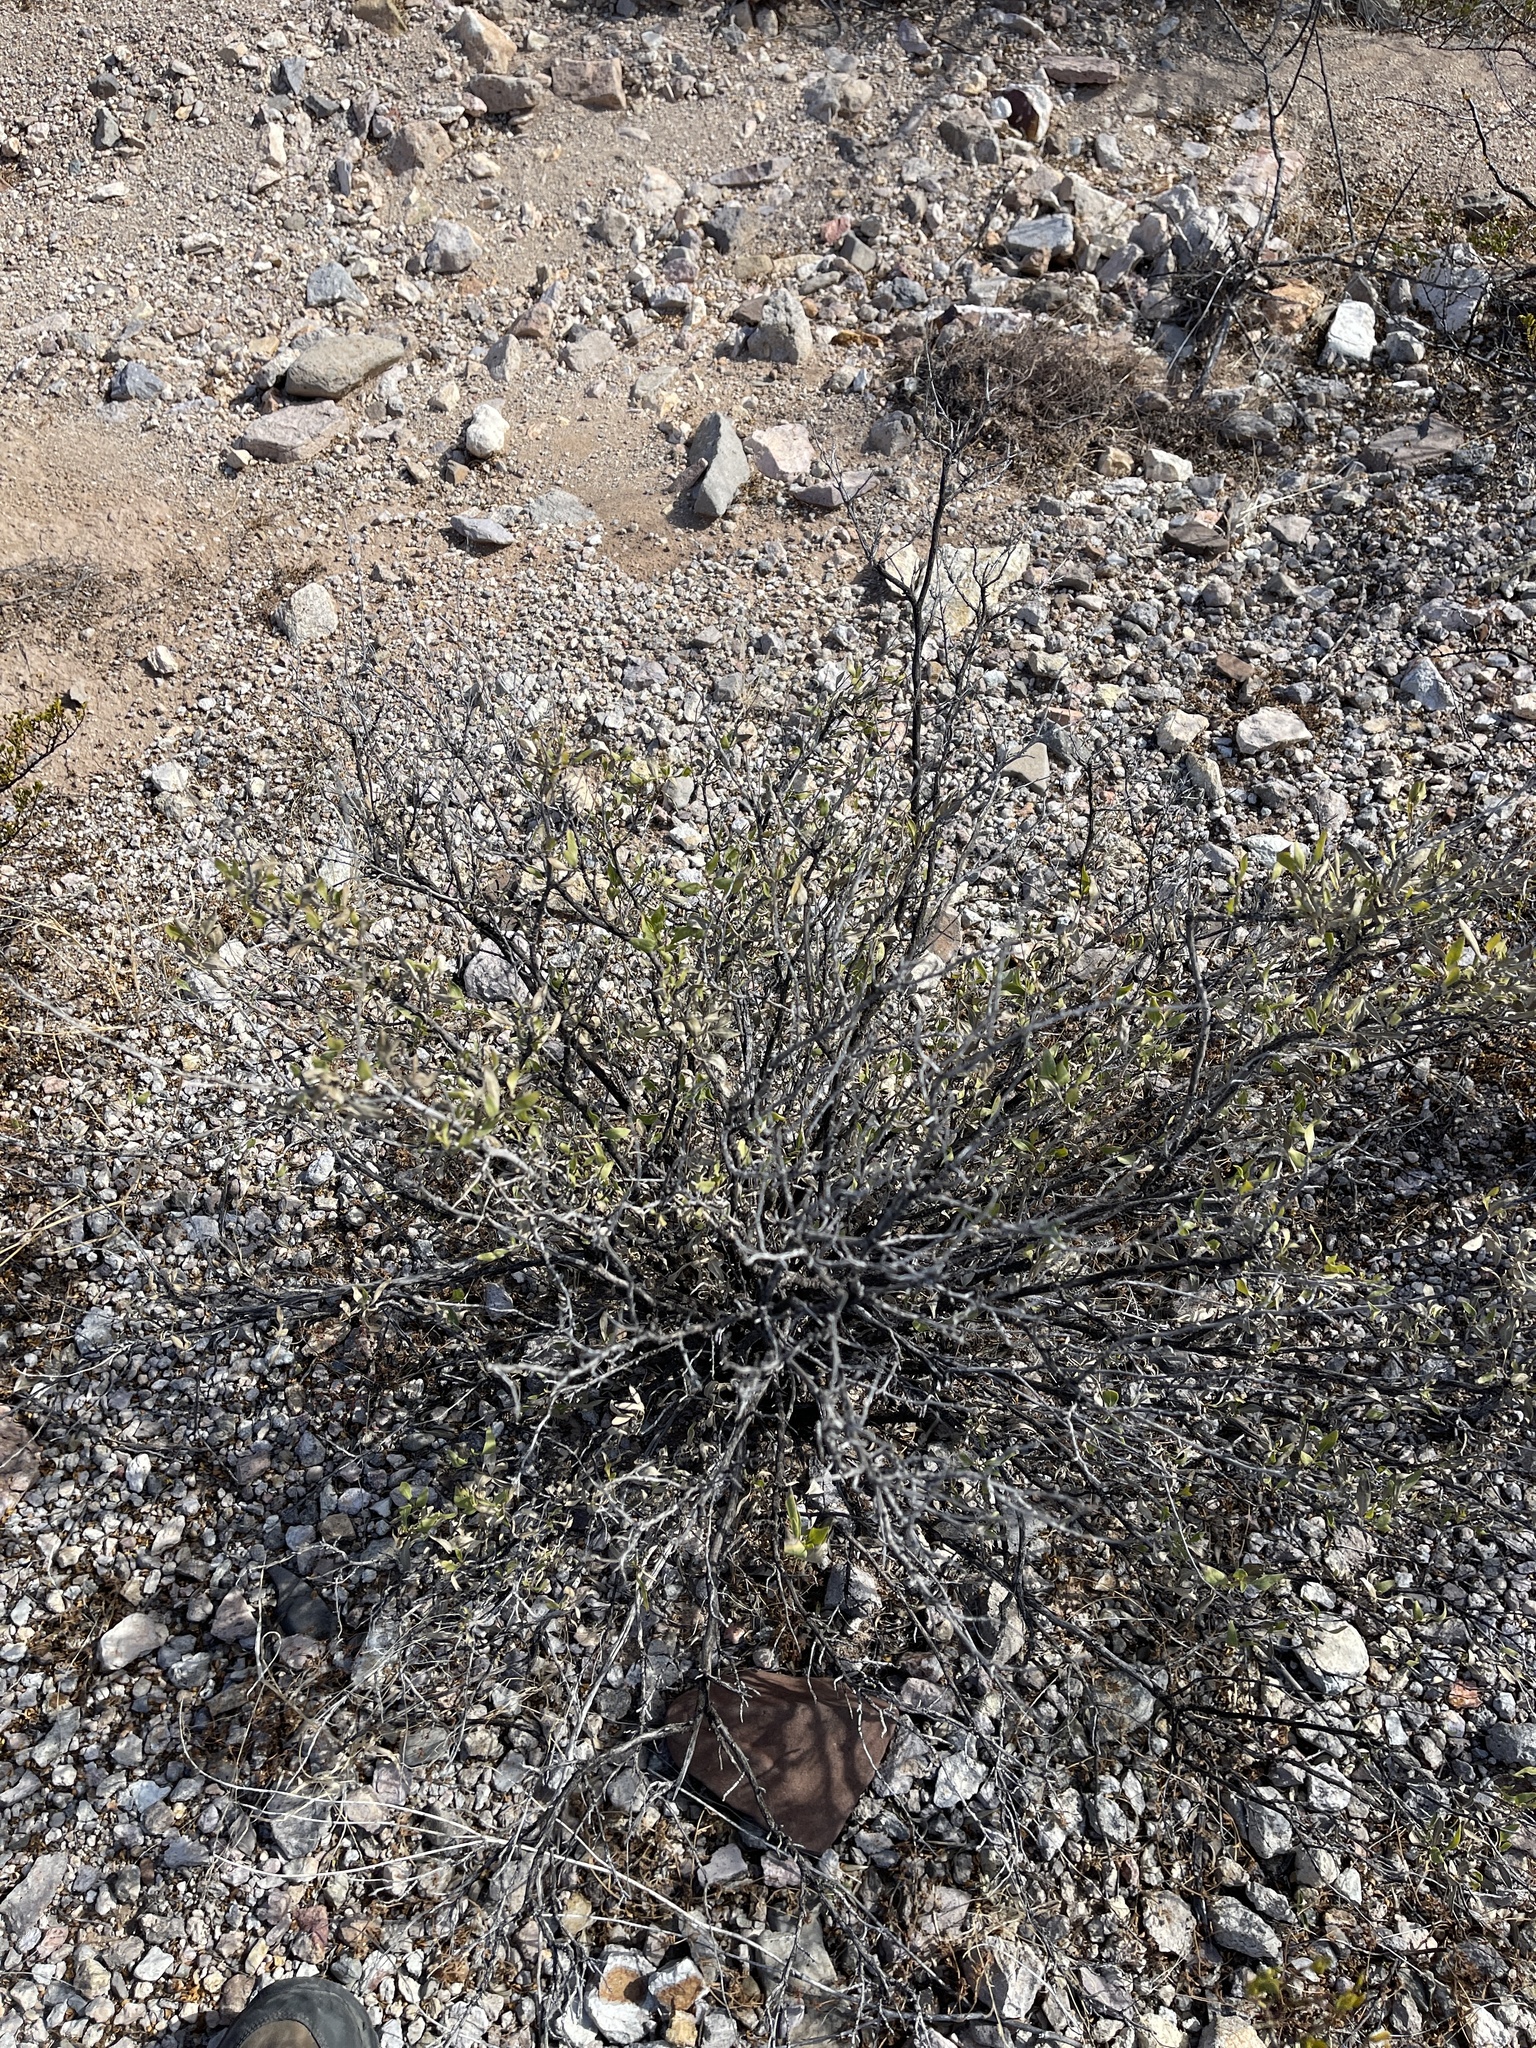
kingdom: Plantae
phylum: Tracheophyta
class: Magnoliopsida
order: Asterales
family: Asteraceae
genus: Flourensia
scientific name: Flourensia cernua
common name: Varnishbush
